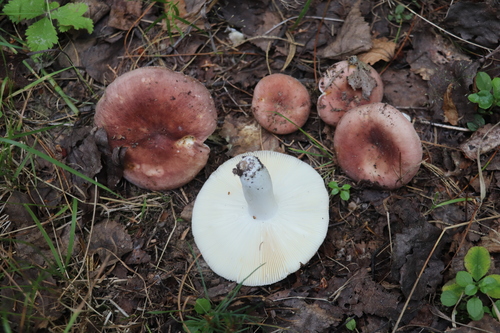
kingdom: Fungi
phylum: Basidiomycota
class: Agaricomycetes
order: Russulales
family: Russulaceae
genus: Russula
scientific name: Russula vesca
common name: Bare-toothed russula
